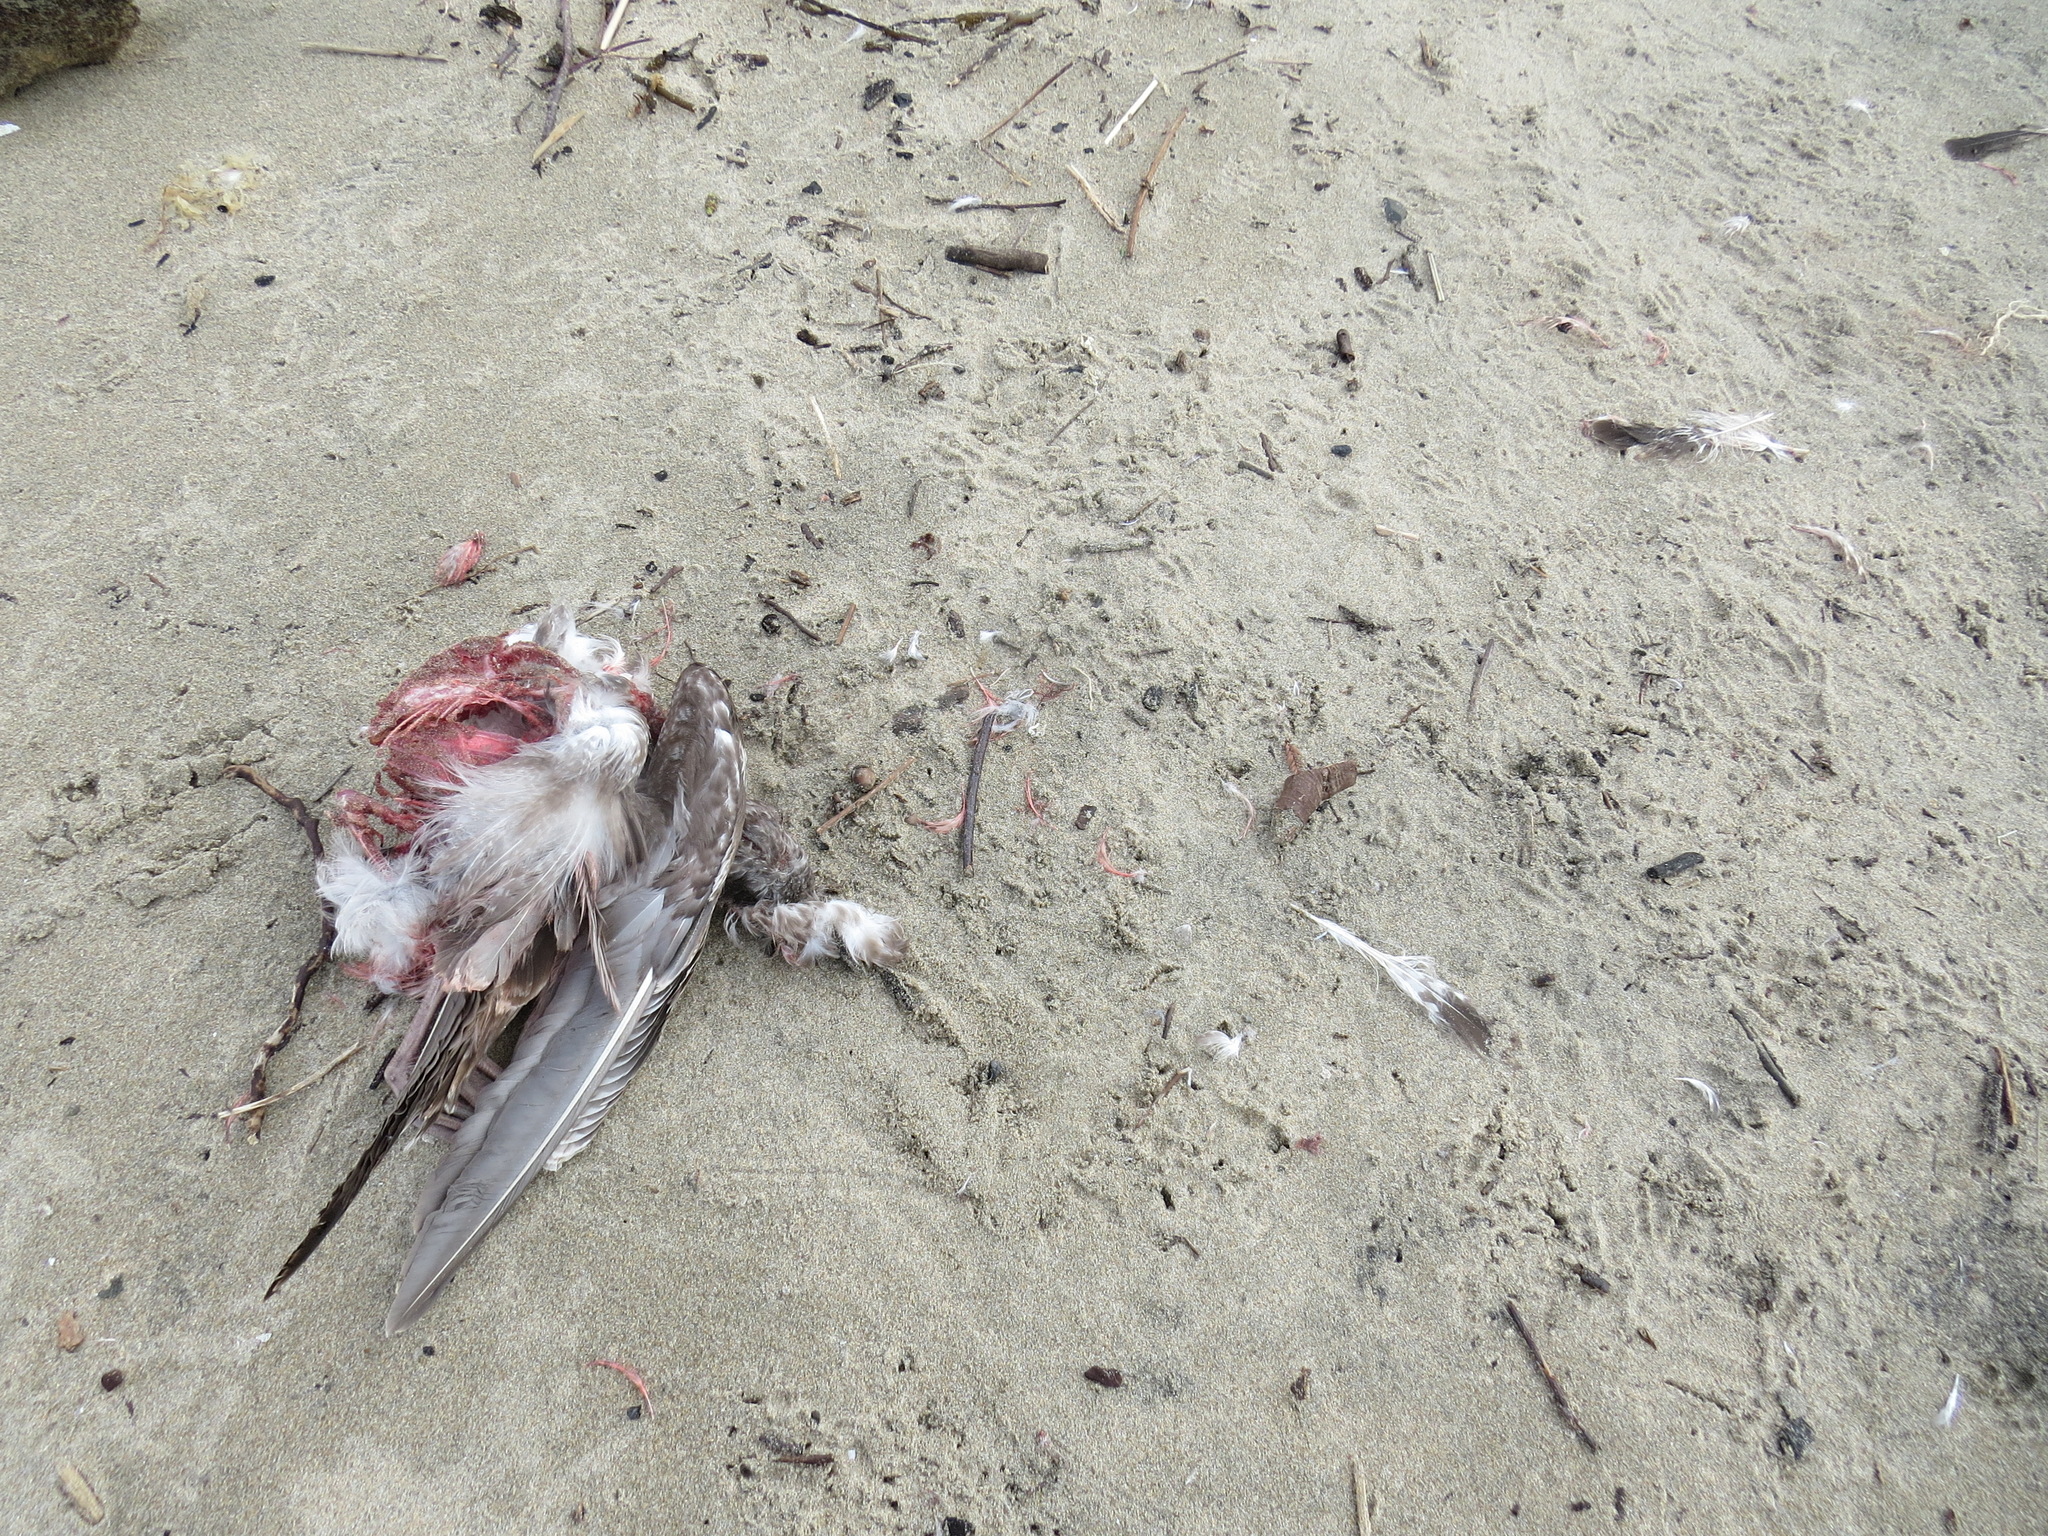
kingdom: Animalia
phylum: Chordata
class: Aves
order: Accipitriformes
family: Cathartidae
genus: Cathartes
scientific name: Cathartes aura
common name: Turkey vulture
